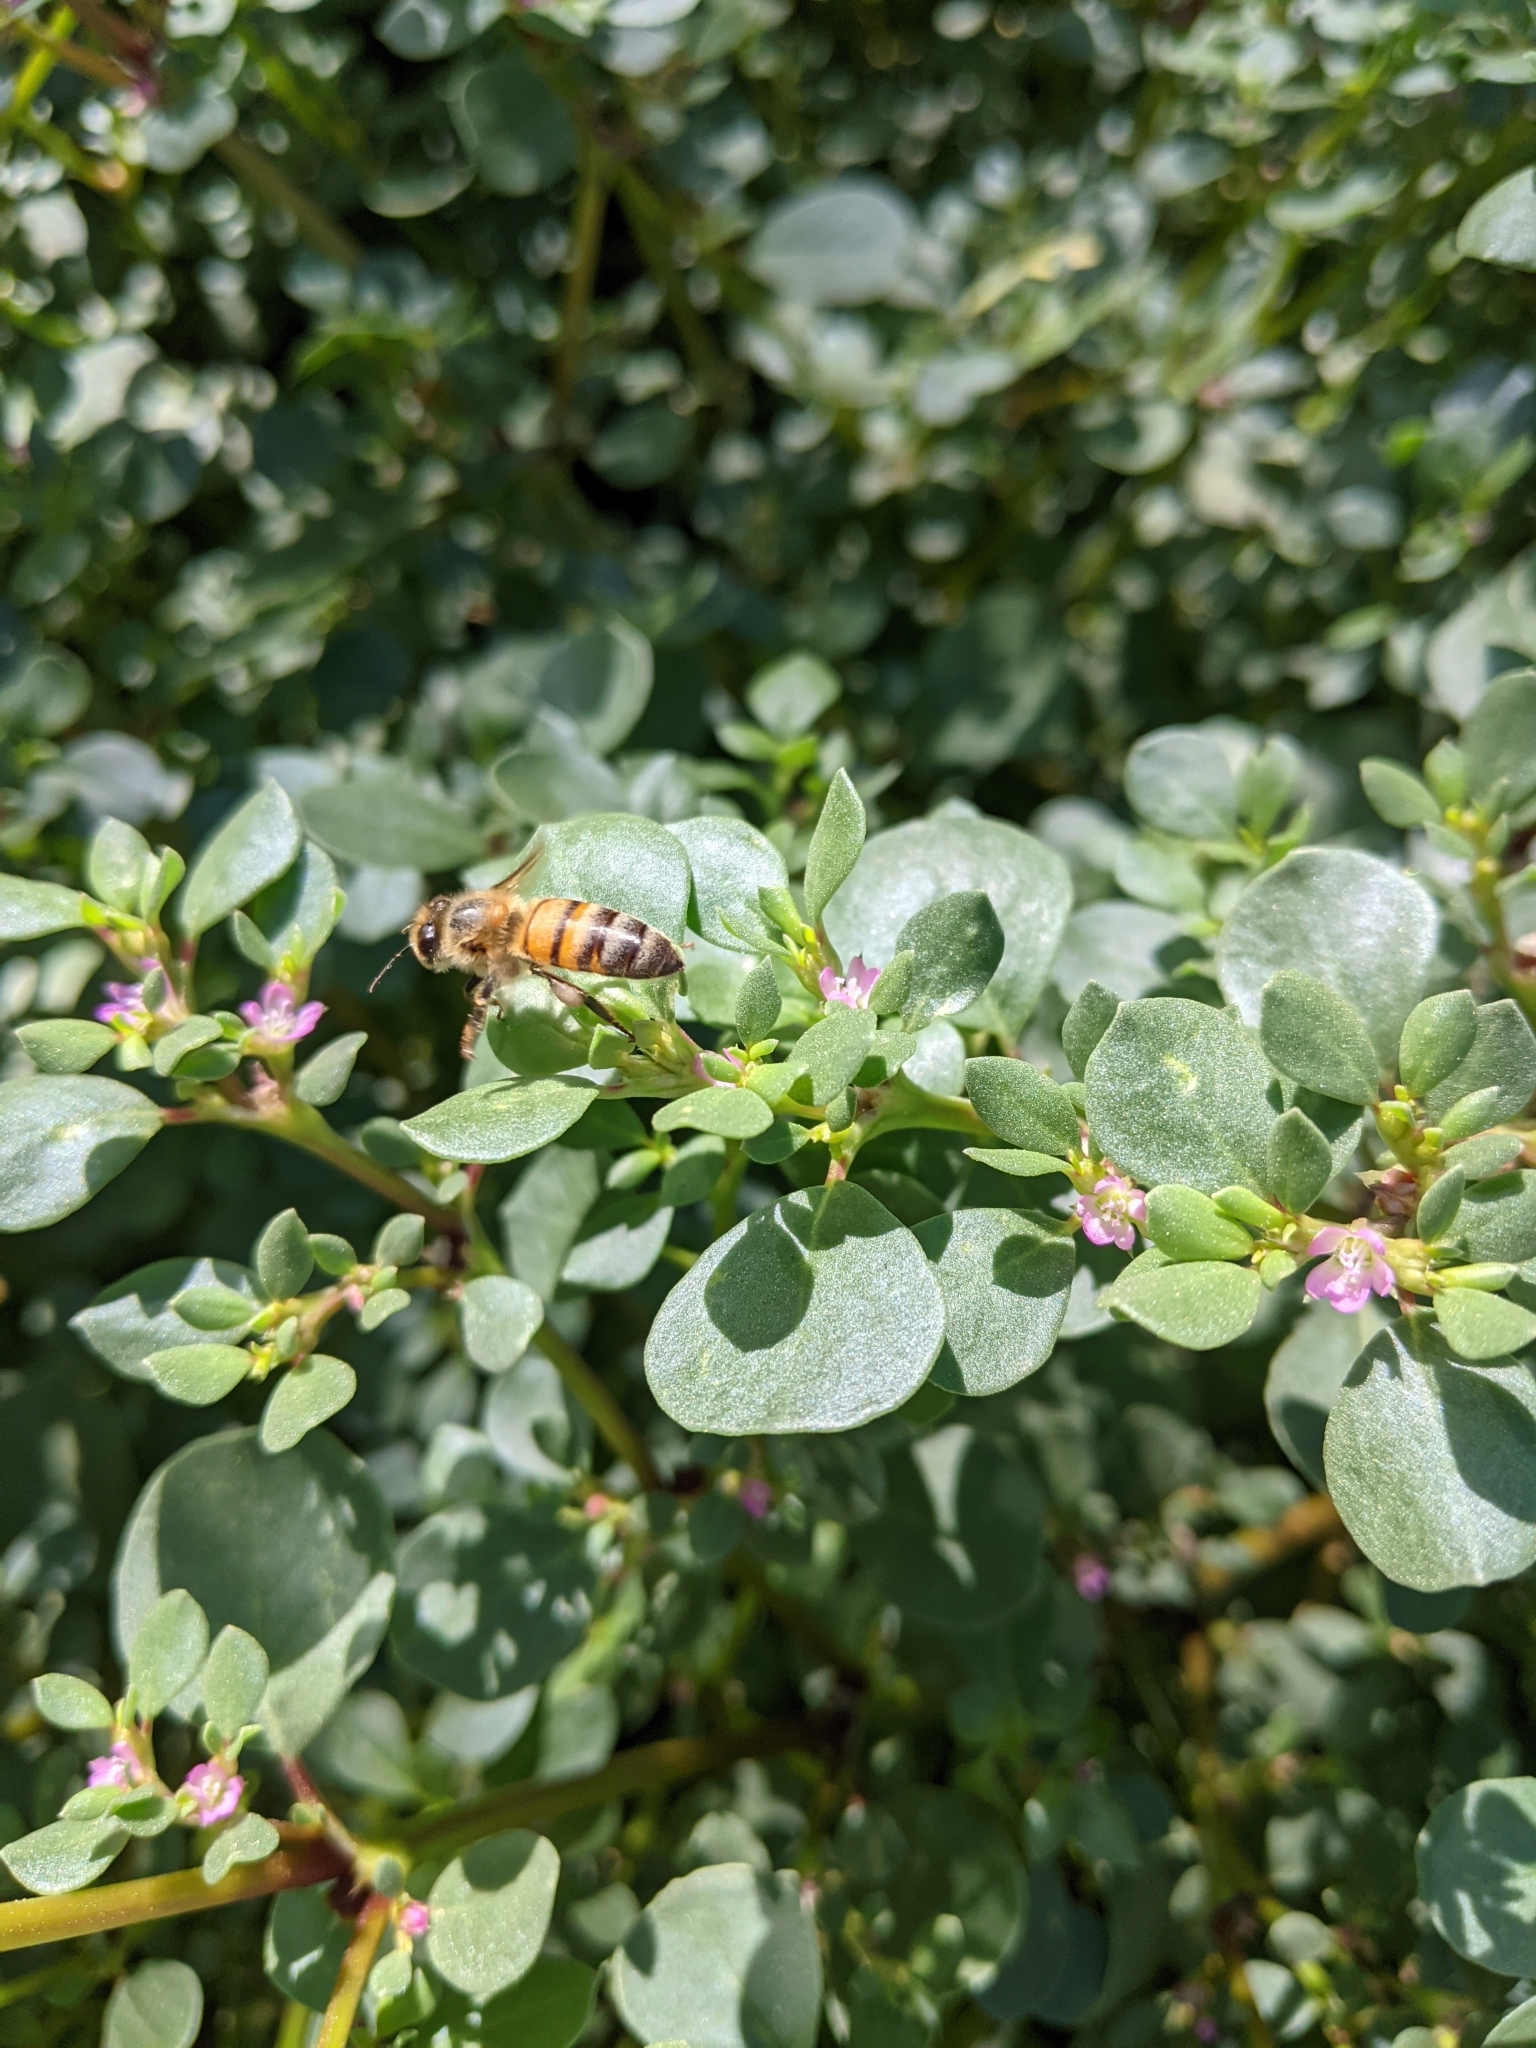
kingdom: Animalia
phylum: Arthropoda
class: Insecta
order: Hymenoptera
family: Apidae
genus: Apis
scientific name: Apis mellifera
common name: Honey bee
